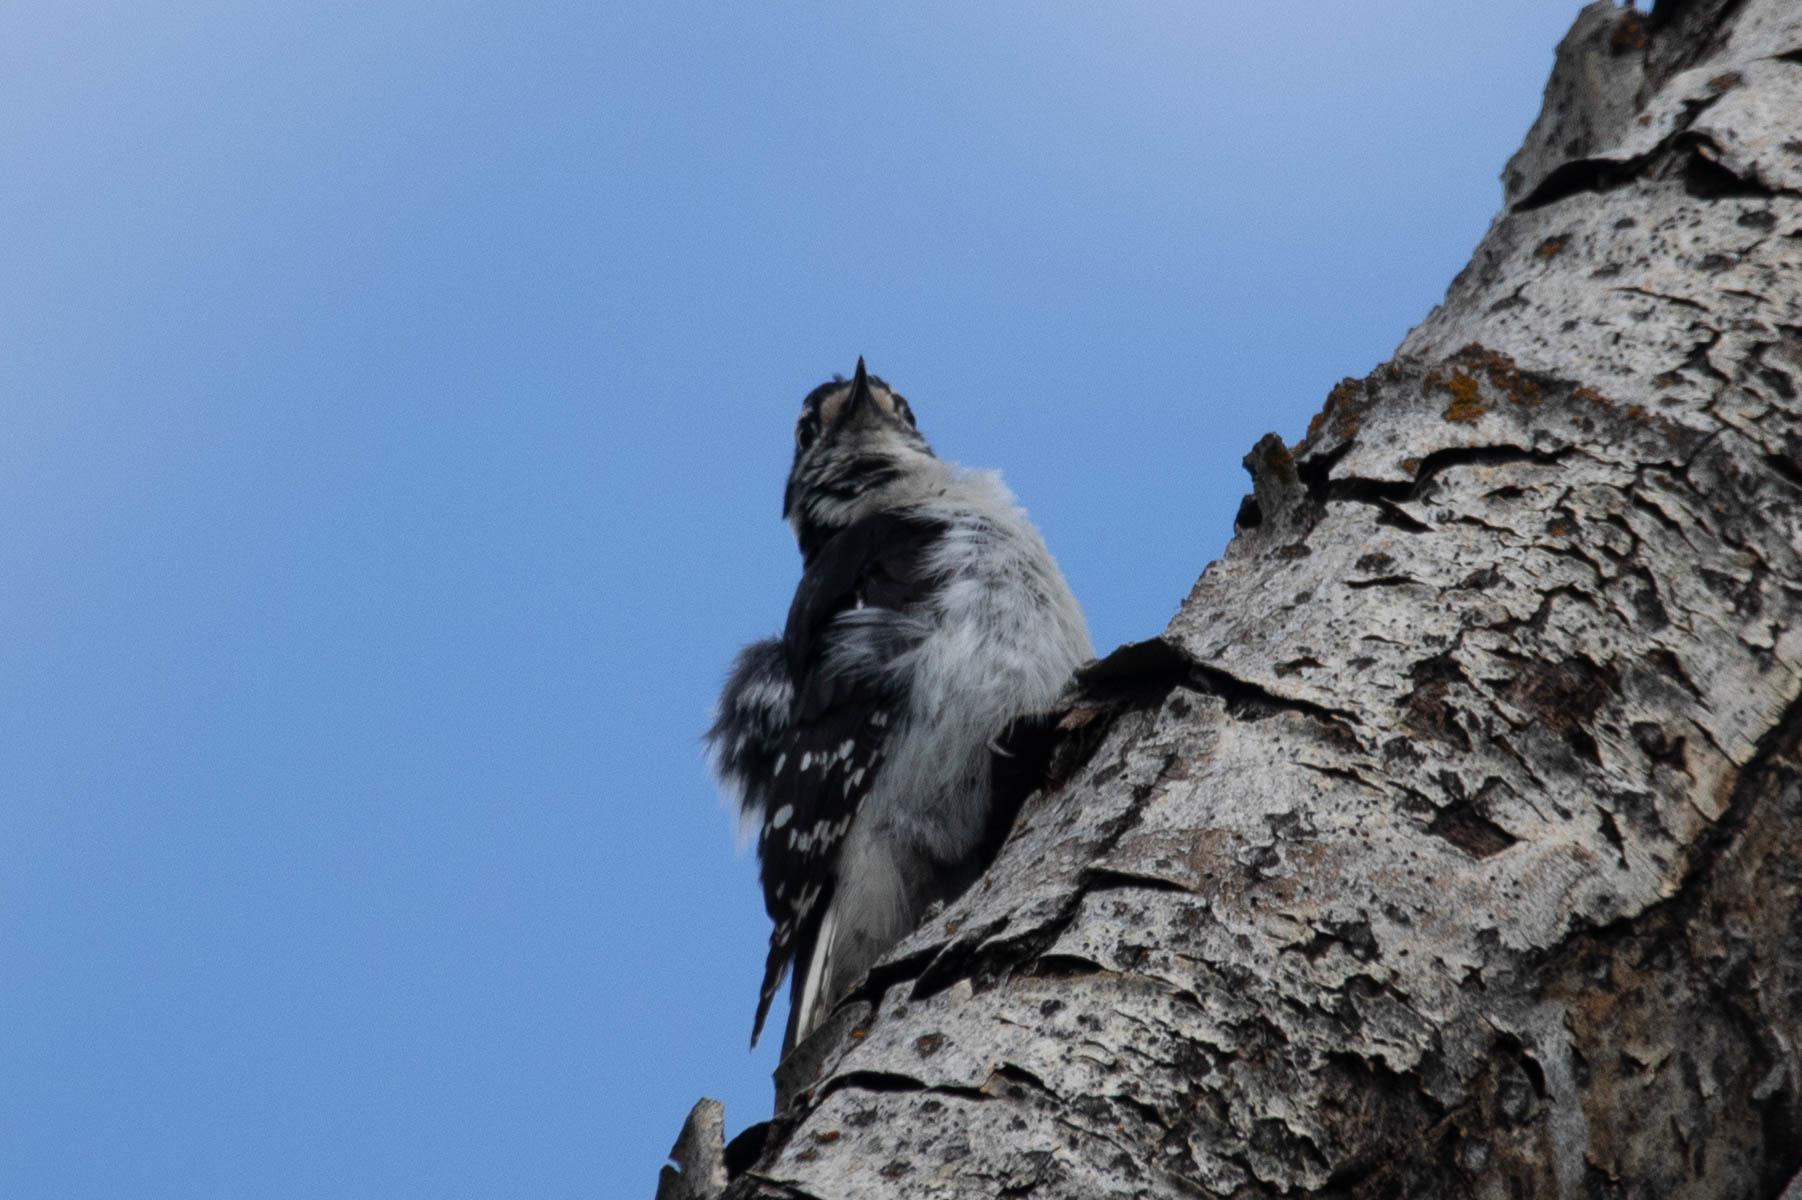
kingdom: Animalia
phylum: Chordata
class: Aves
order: Piciformes
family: Picidae
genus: Dryobates
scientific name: Dryobates pubescens
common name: Downy woodpecker
